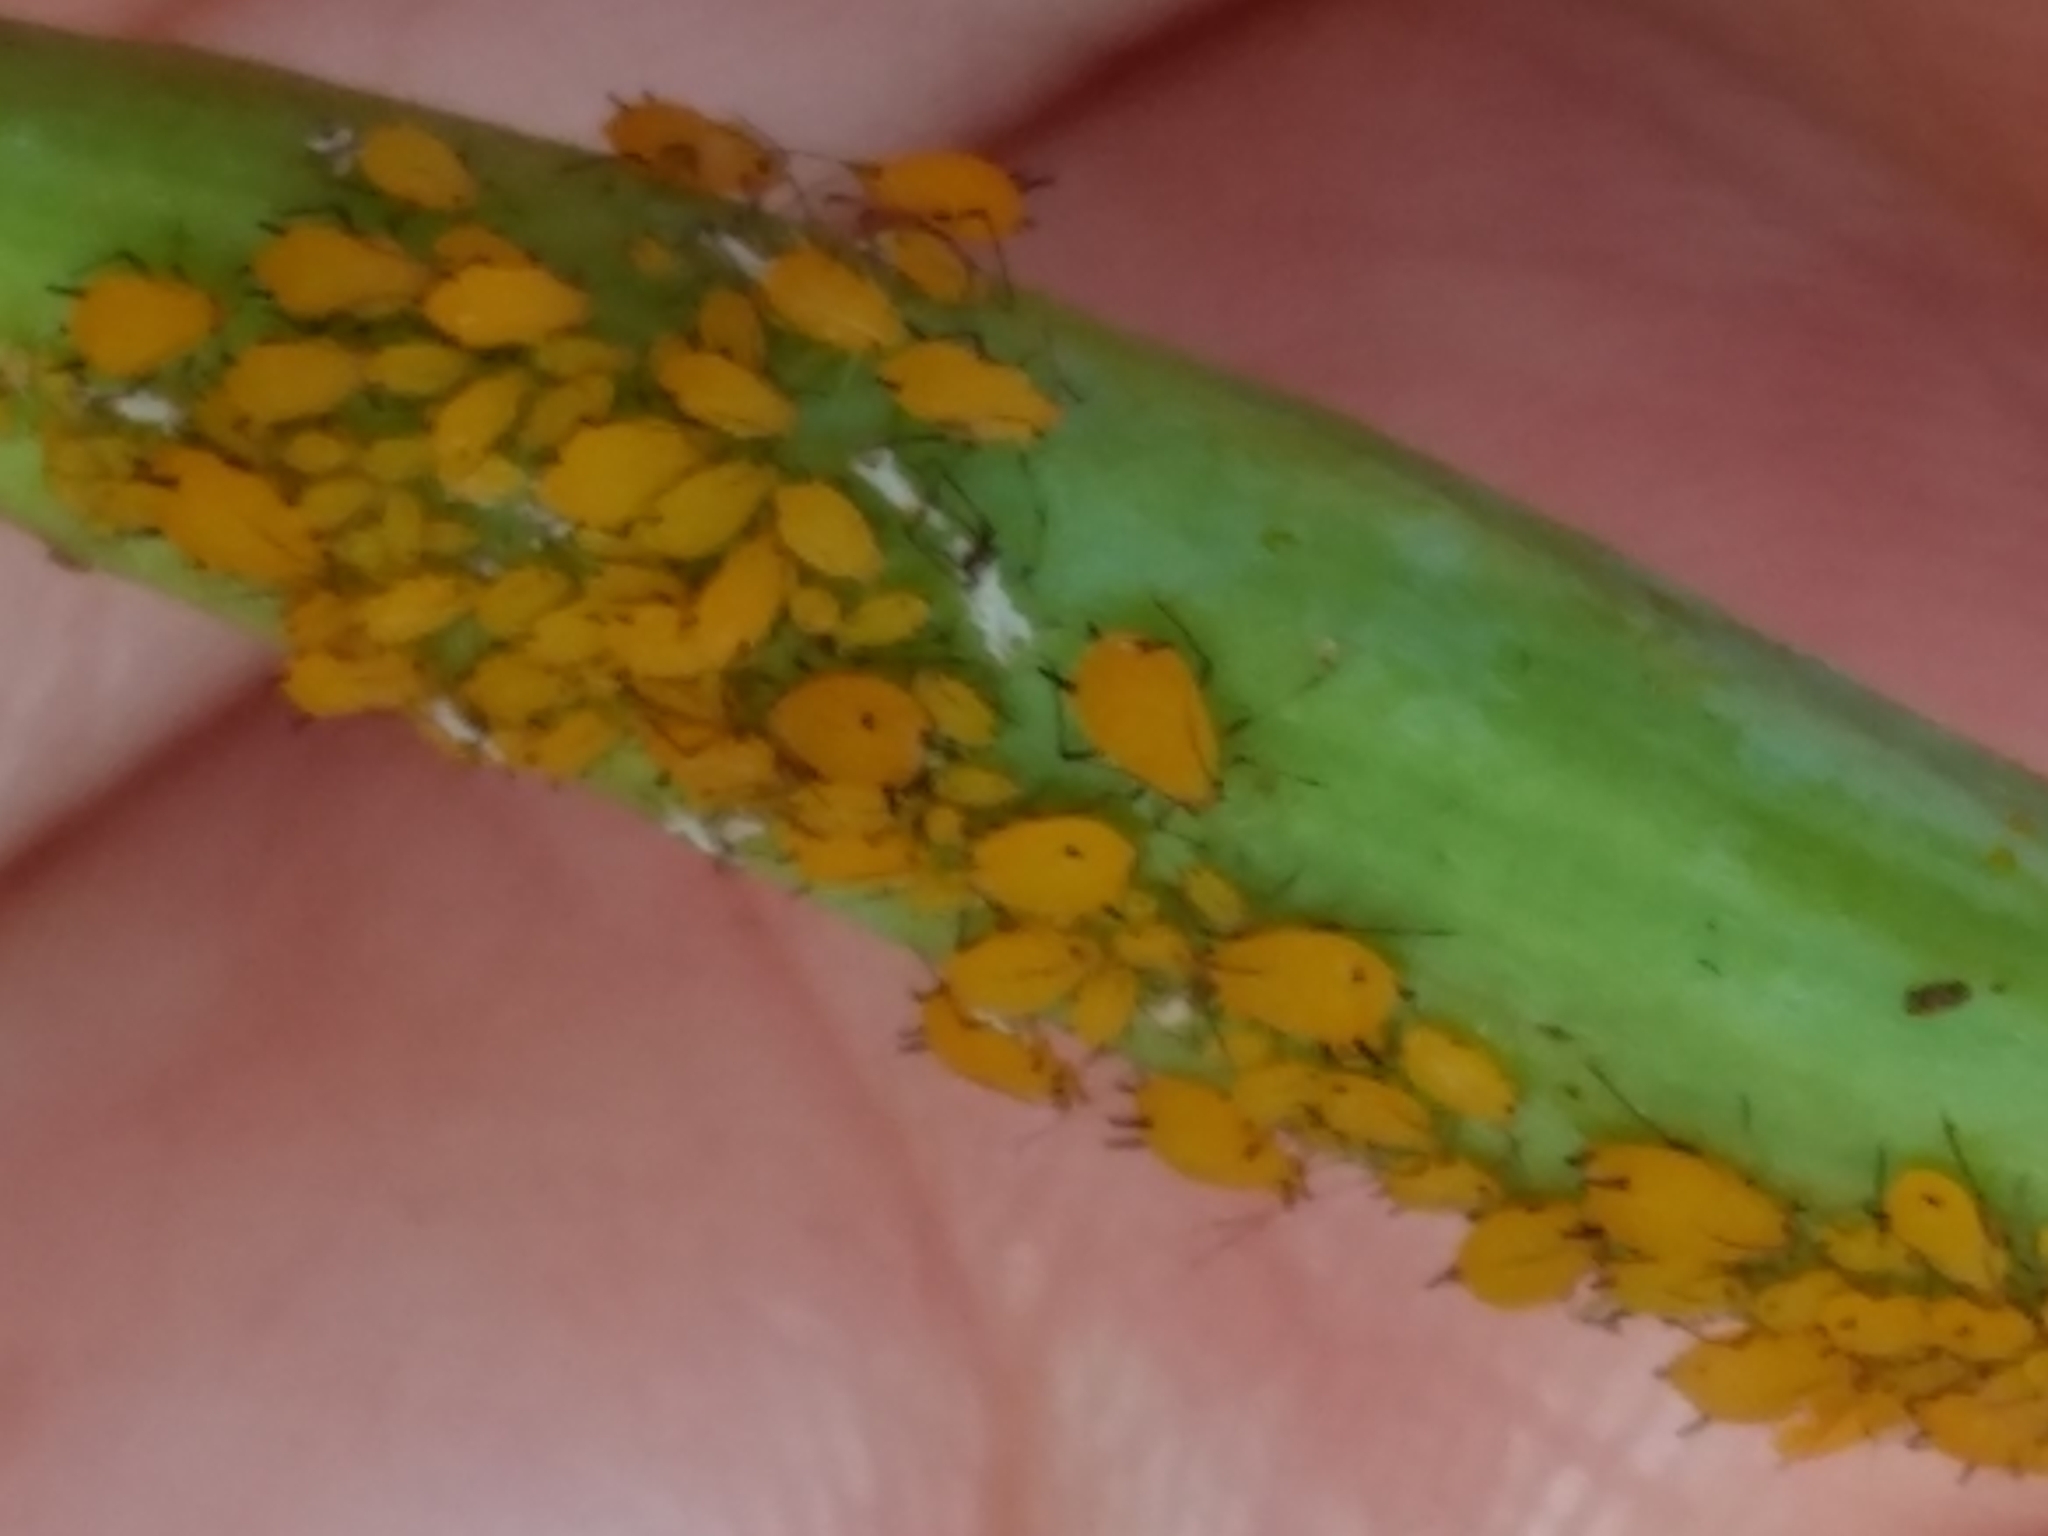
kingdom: Animalia
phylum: Arthropoda
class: Insecta
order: Hemiptera
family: Aphididae
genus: Aphis
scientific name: Aphis nerii
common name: Oleander aphid
